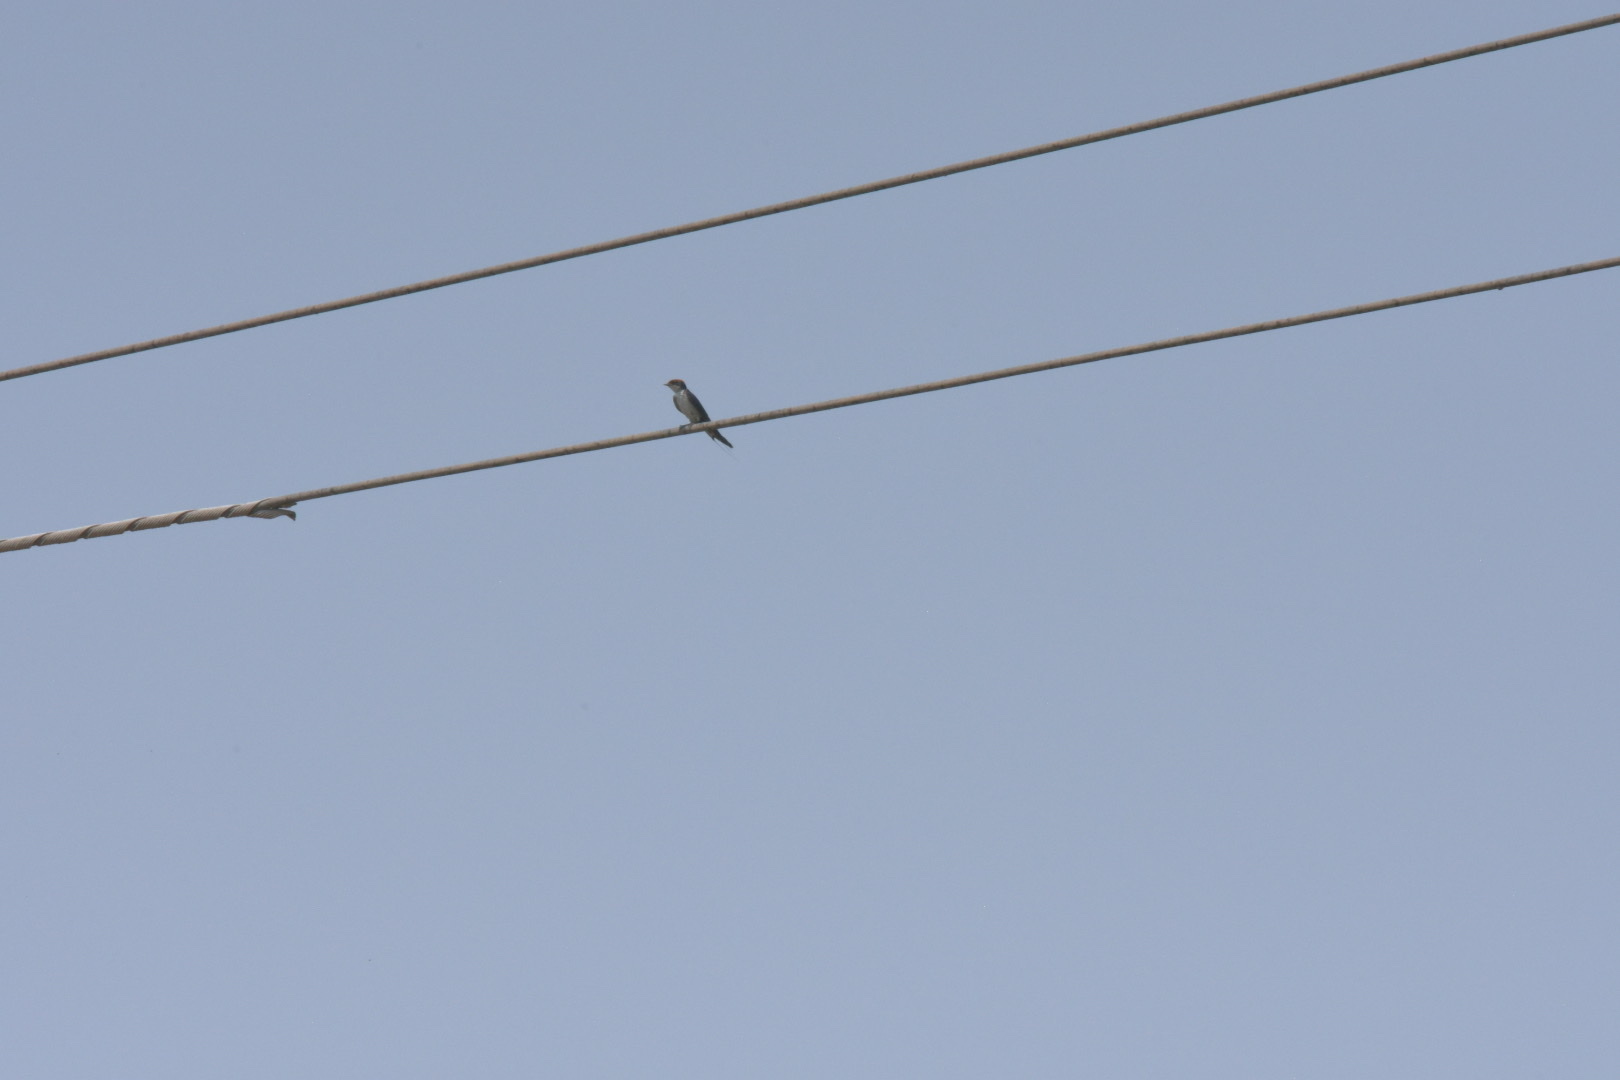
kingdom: Animalia
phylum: Chordata
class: Aves
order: Passeriformes
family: Hirundinidae
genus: Hirundo
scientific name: Hirundo smithii
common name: Wire-tailed swallow
